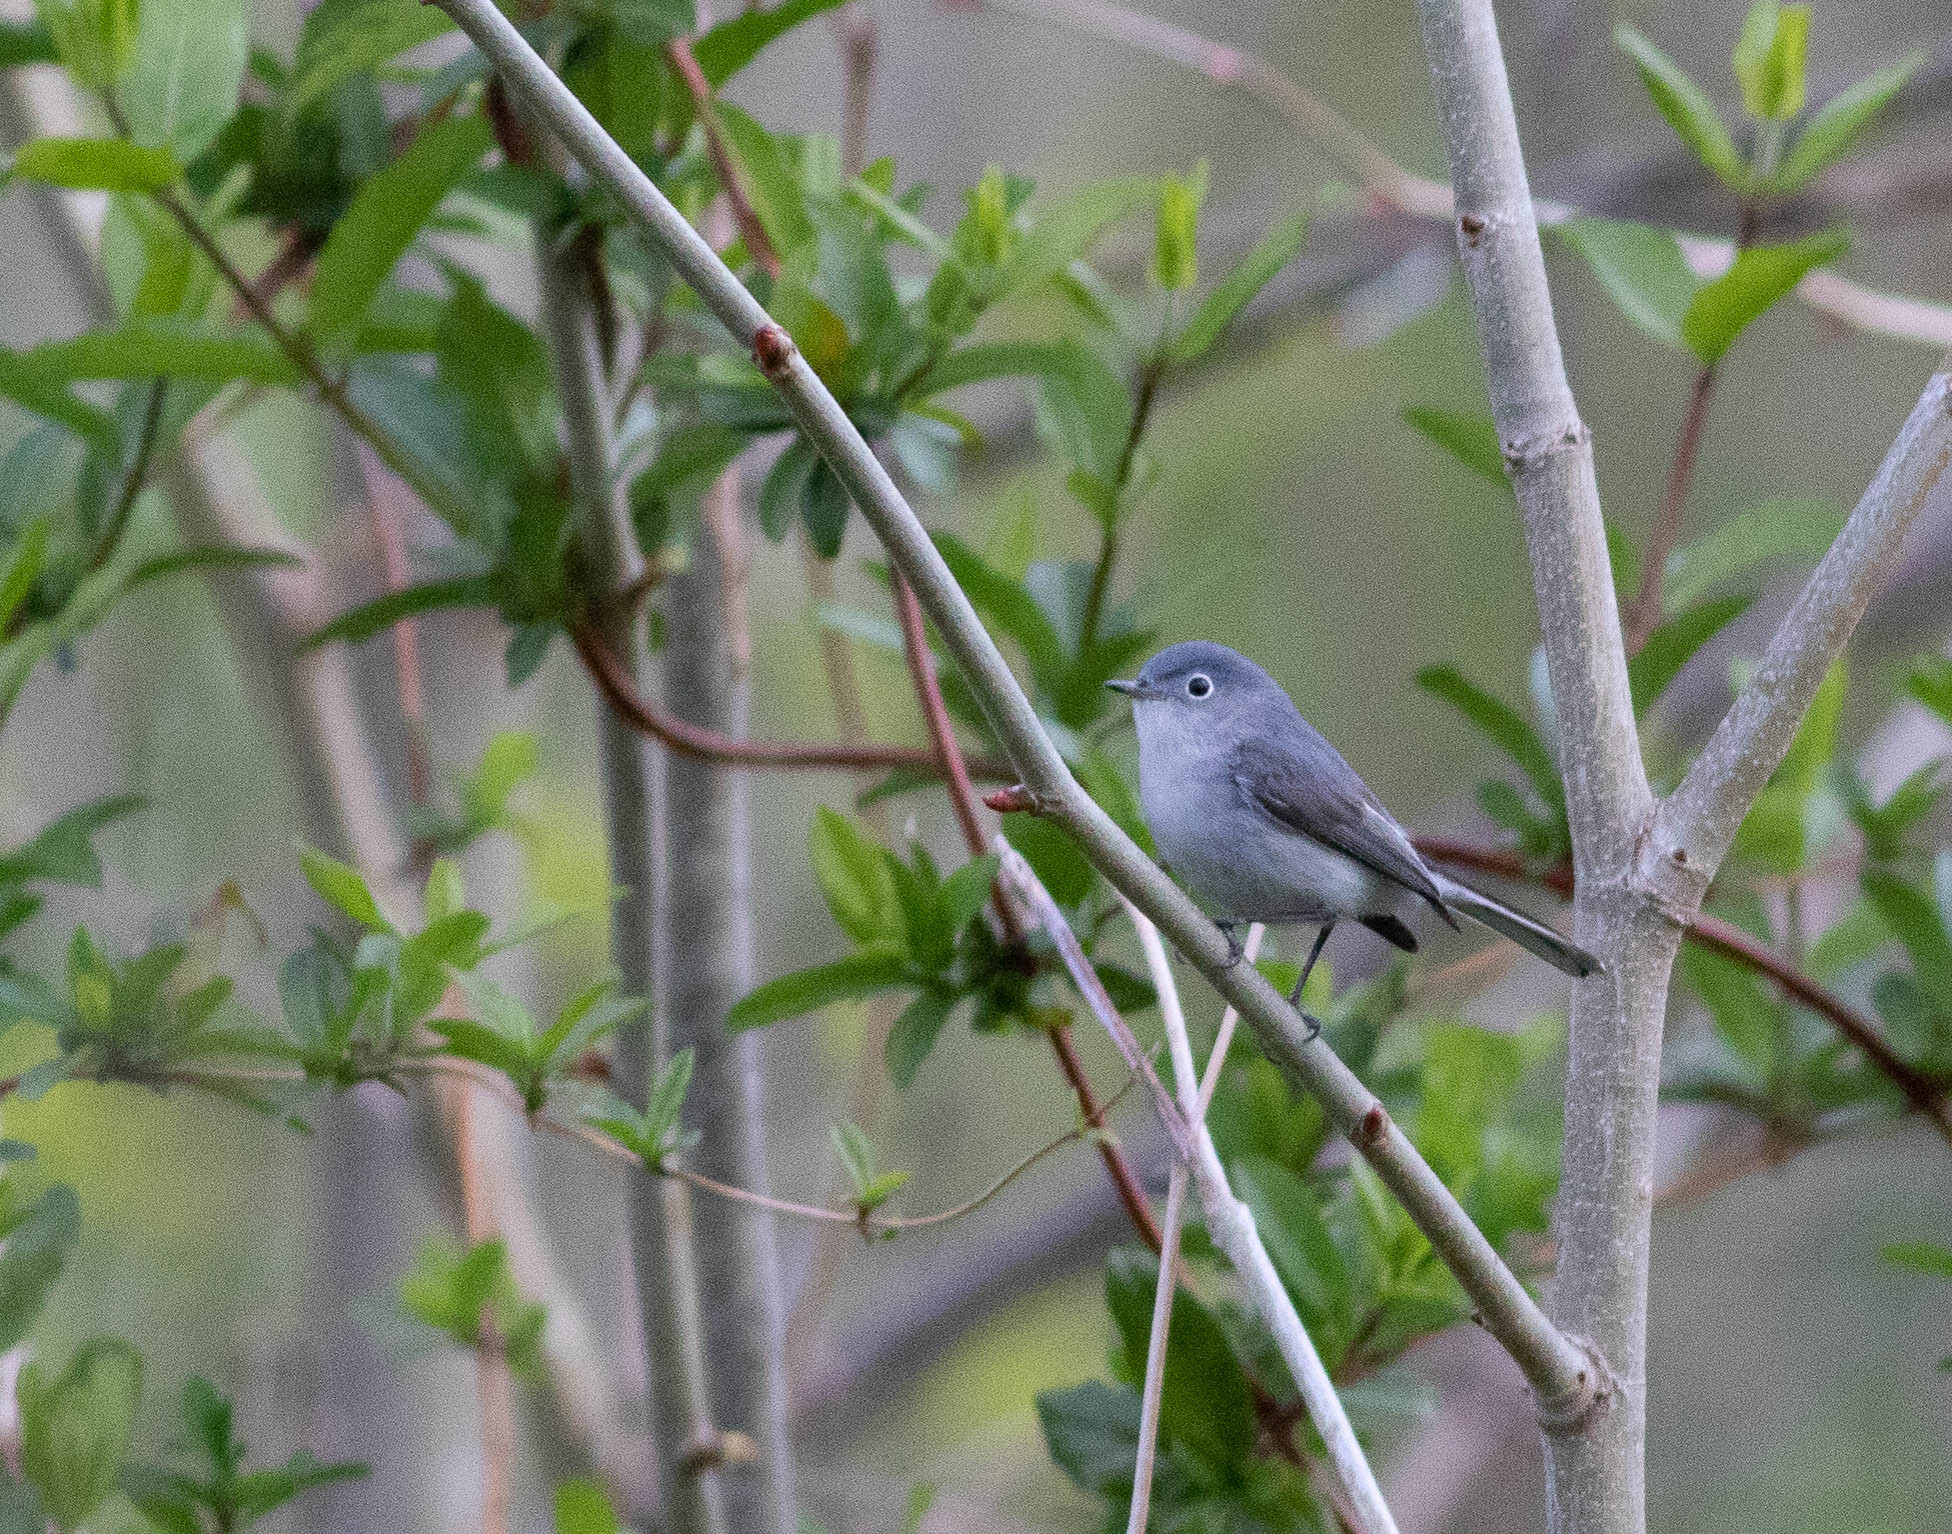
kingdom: Animalia
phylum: Chordata
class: Aves
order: Passeriformes
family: Polioptilidae
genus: Polioptila
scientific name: Polioptila caerulea
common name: Blue-gray gnatcatcher
